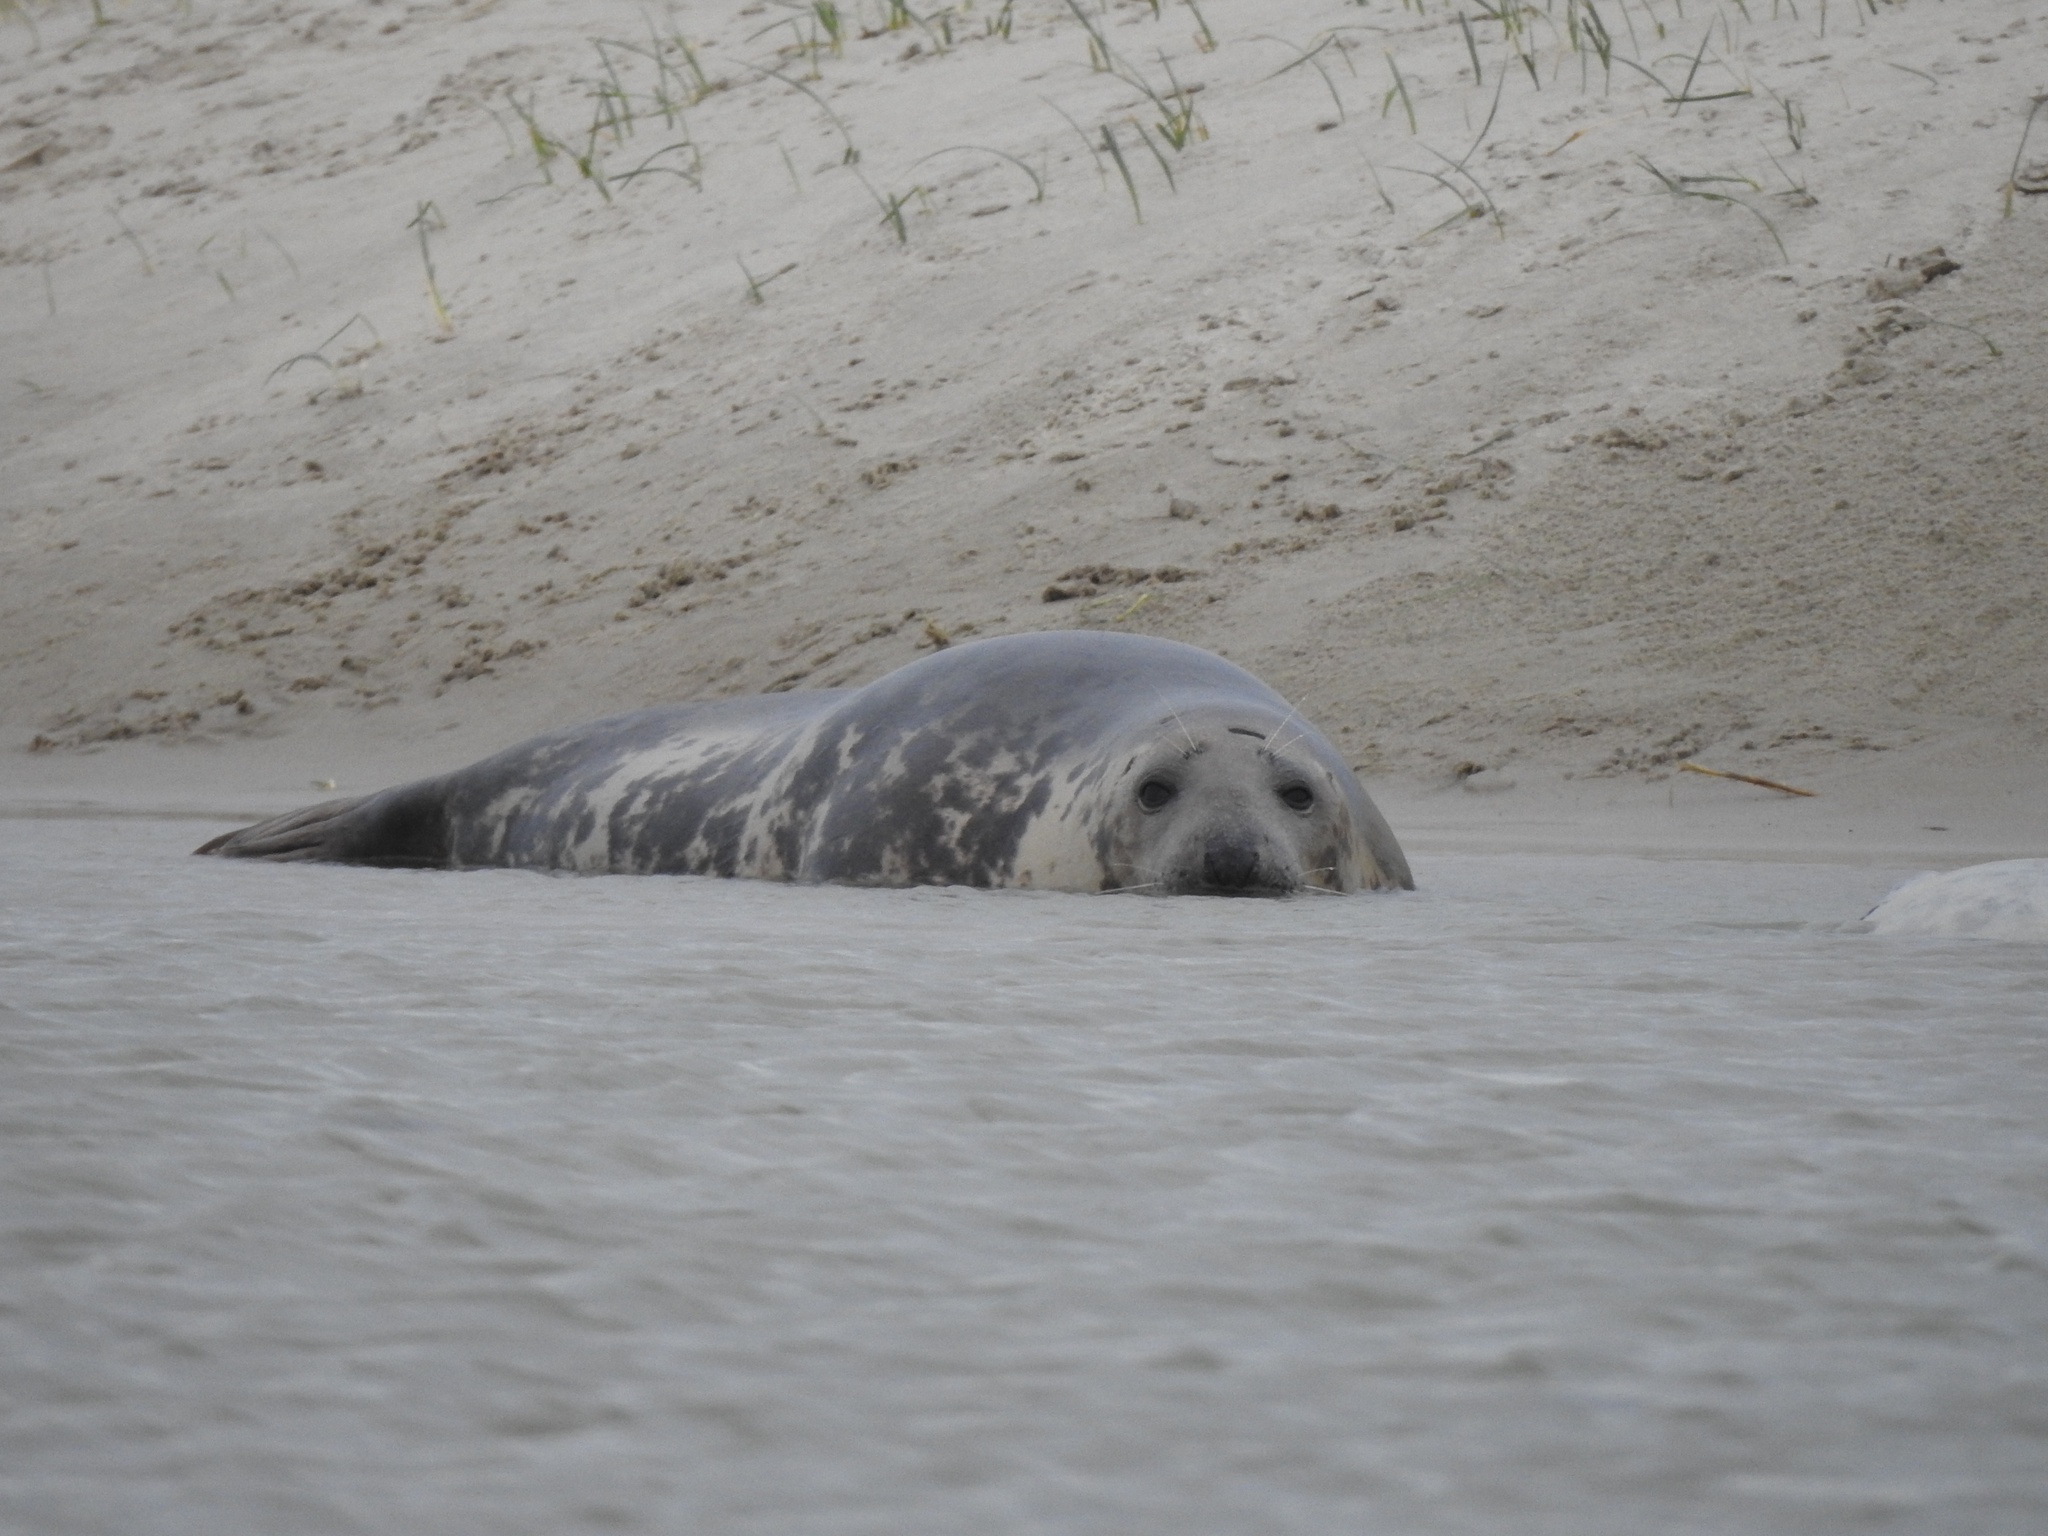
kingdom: Animalia
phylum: Chordata
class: Mammalia
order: Carnivora
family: Phocidae
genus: Halichoerus
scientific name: Halichoerus grypus
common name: Grey seal
